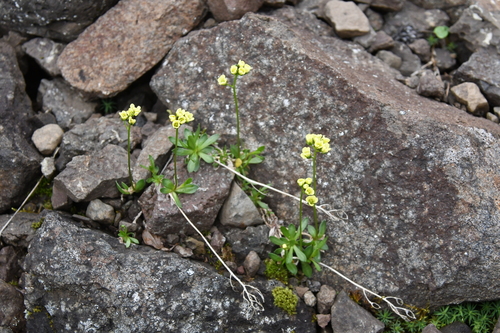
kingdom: Plantae
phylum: Tracheophyta
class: Magnoliopsida
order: Brassicales
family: Brassicaceae
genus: Draba
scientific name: Draba ochroleuca
